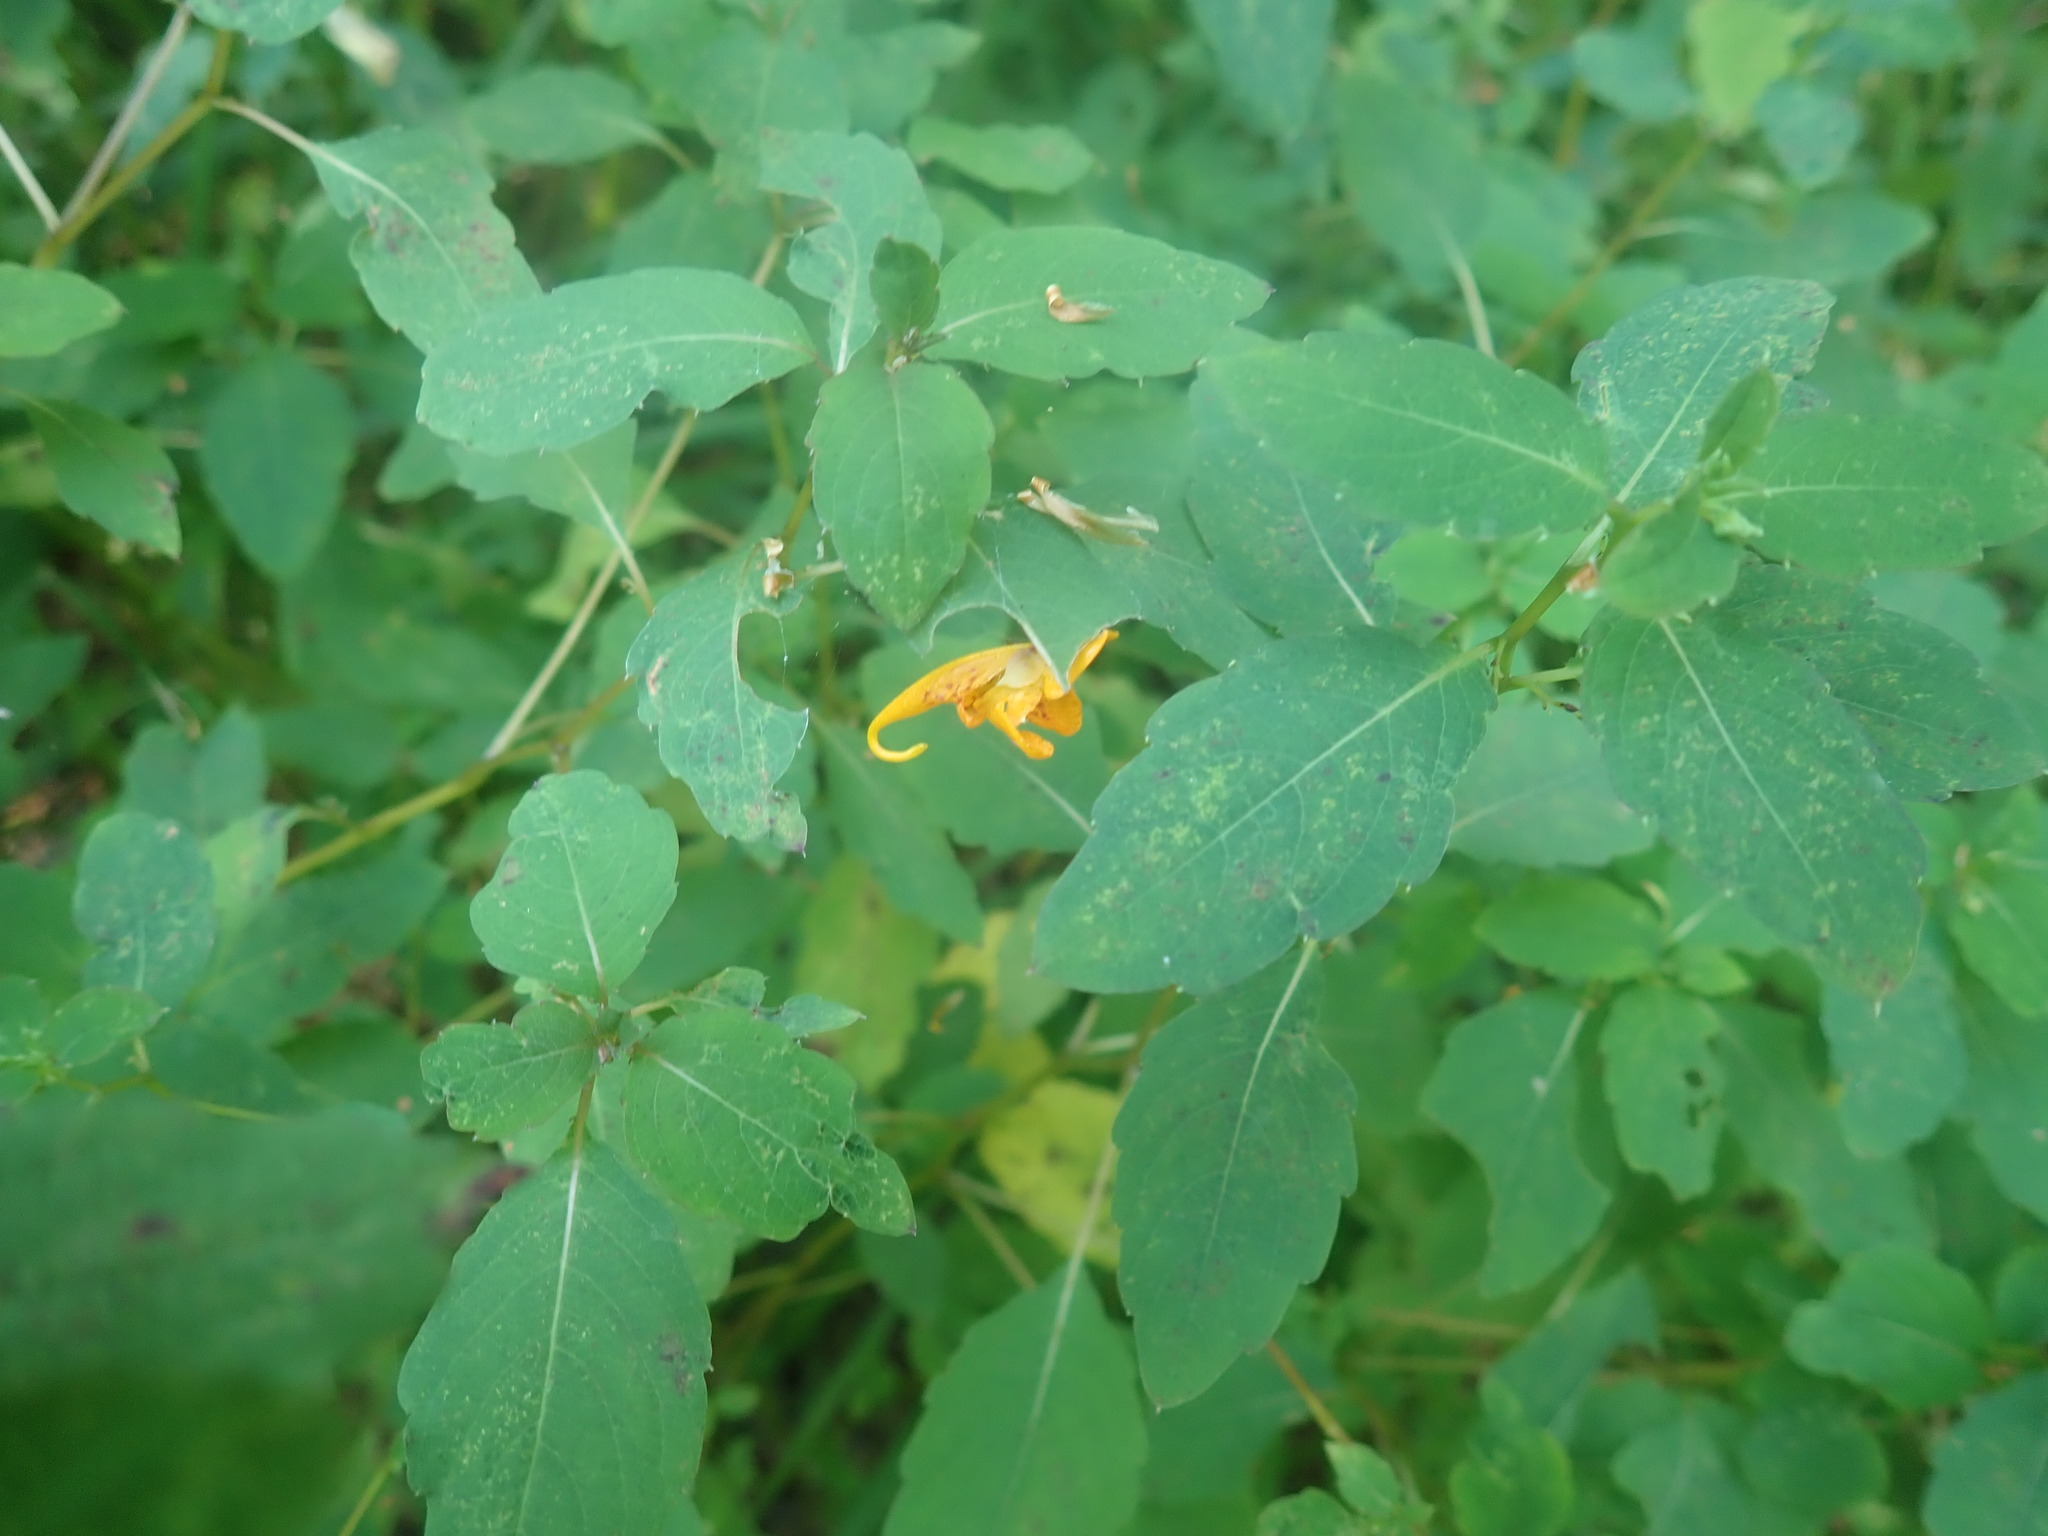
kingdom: Plantae
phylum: Tracheophyta
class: Magnoliopsida
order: Ericales
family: Balsaminaceae
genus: Impatiens
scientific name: Impatiens capensis
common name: Orange balsam
